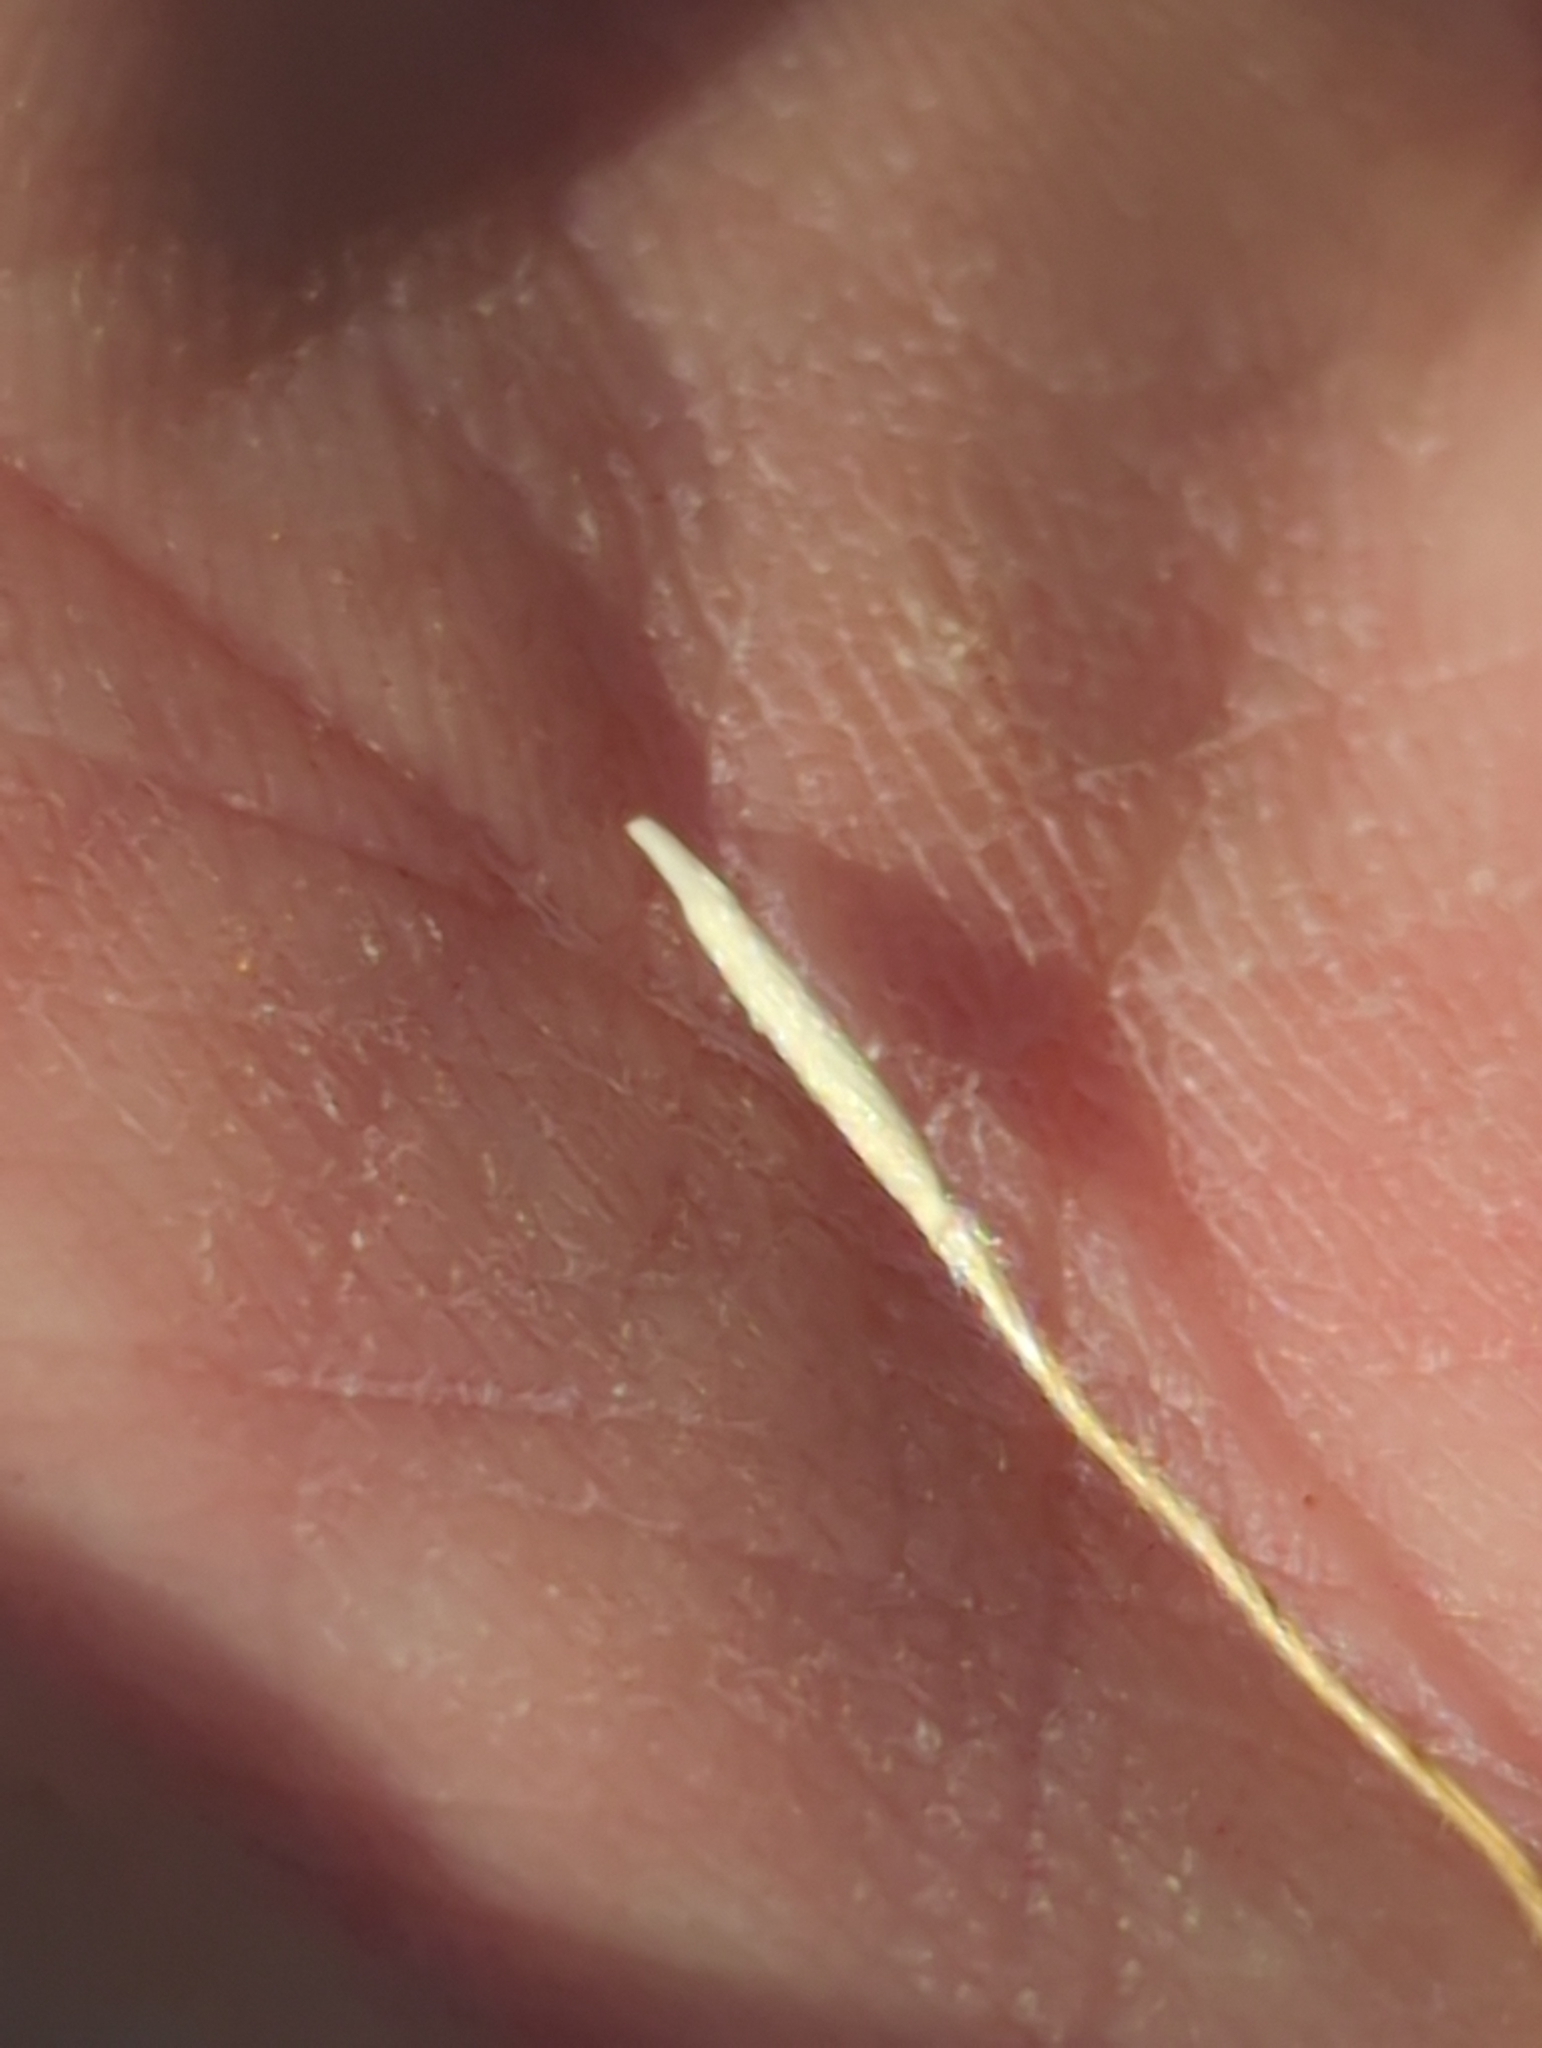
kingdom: Plantae
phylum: Tracheophyta
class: Liliopsida
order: Poales
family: Poaceae
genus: Nassella
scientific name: Nassella pulchra
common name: Purple needlegrass
